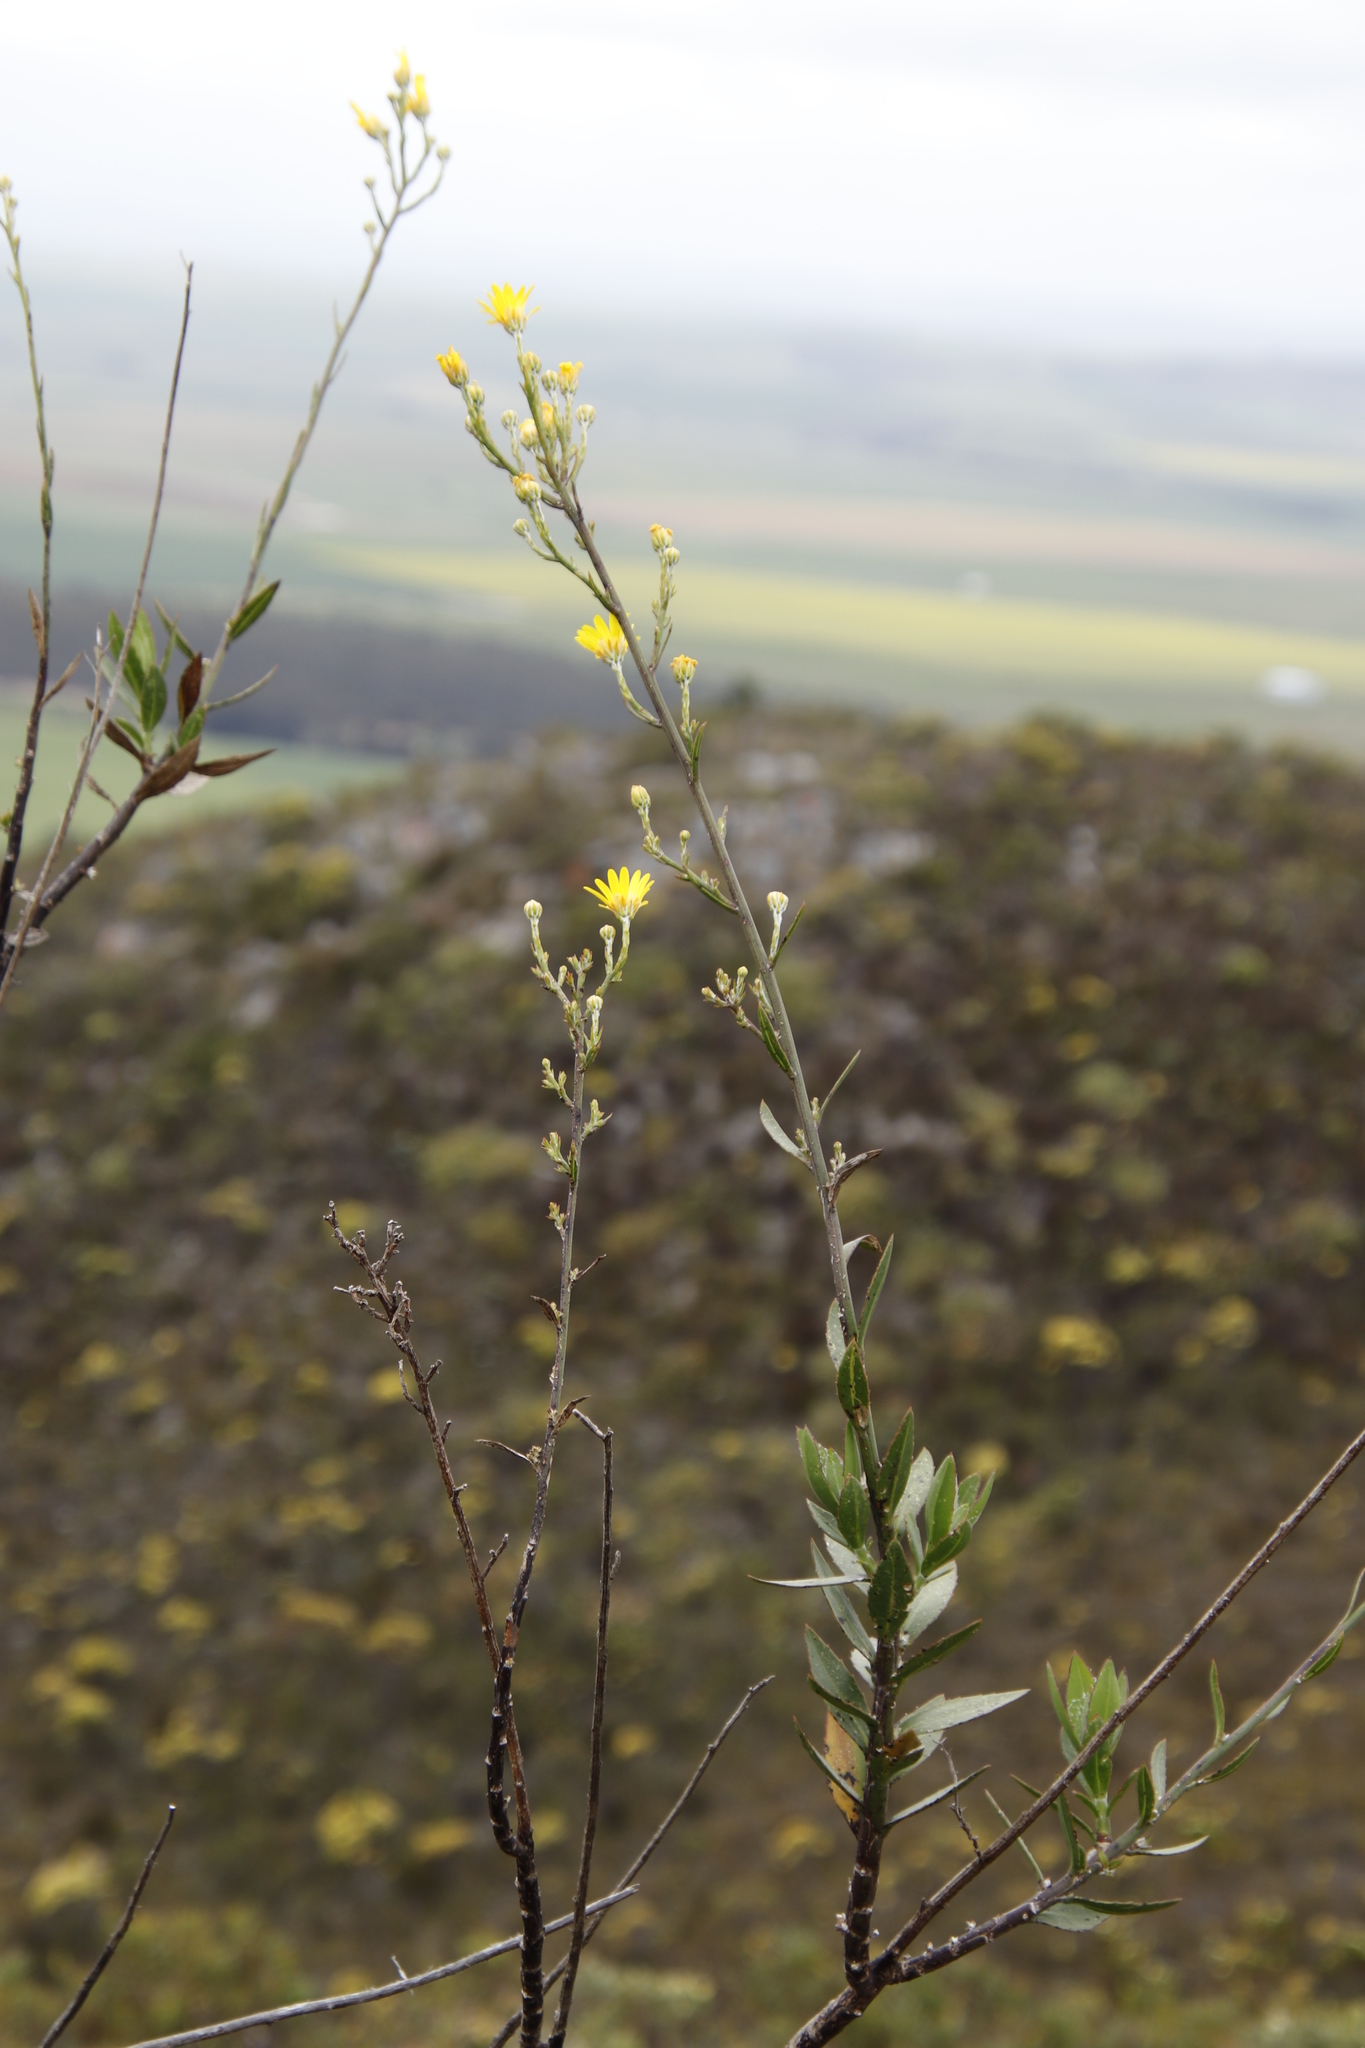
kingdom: Plantae
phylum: Tracheophyta
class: Magnoliopsida
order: Asterales
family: Asteraceae
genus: Osteospermum
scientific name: Osteospermum junceum
